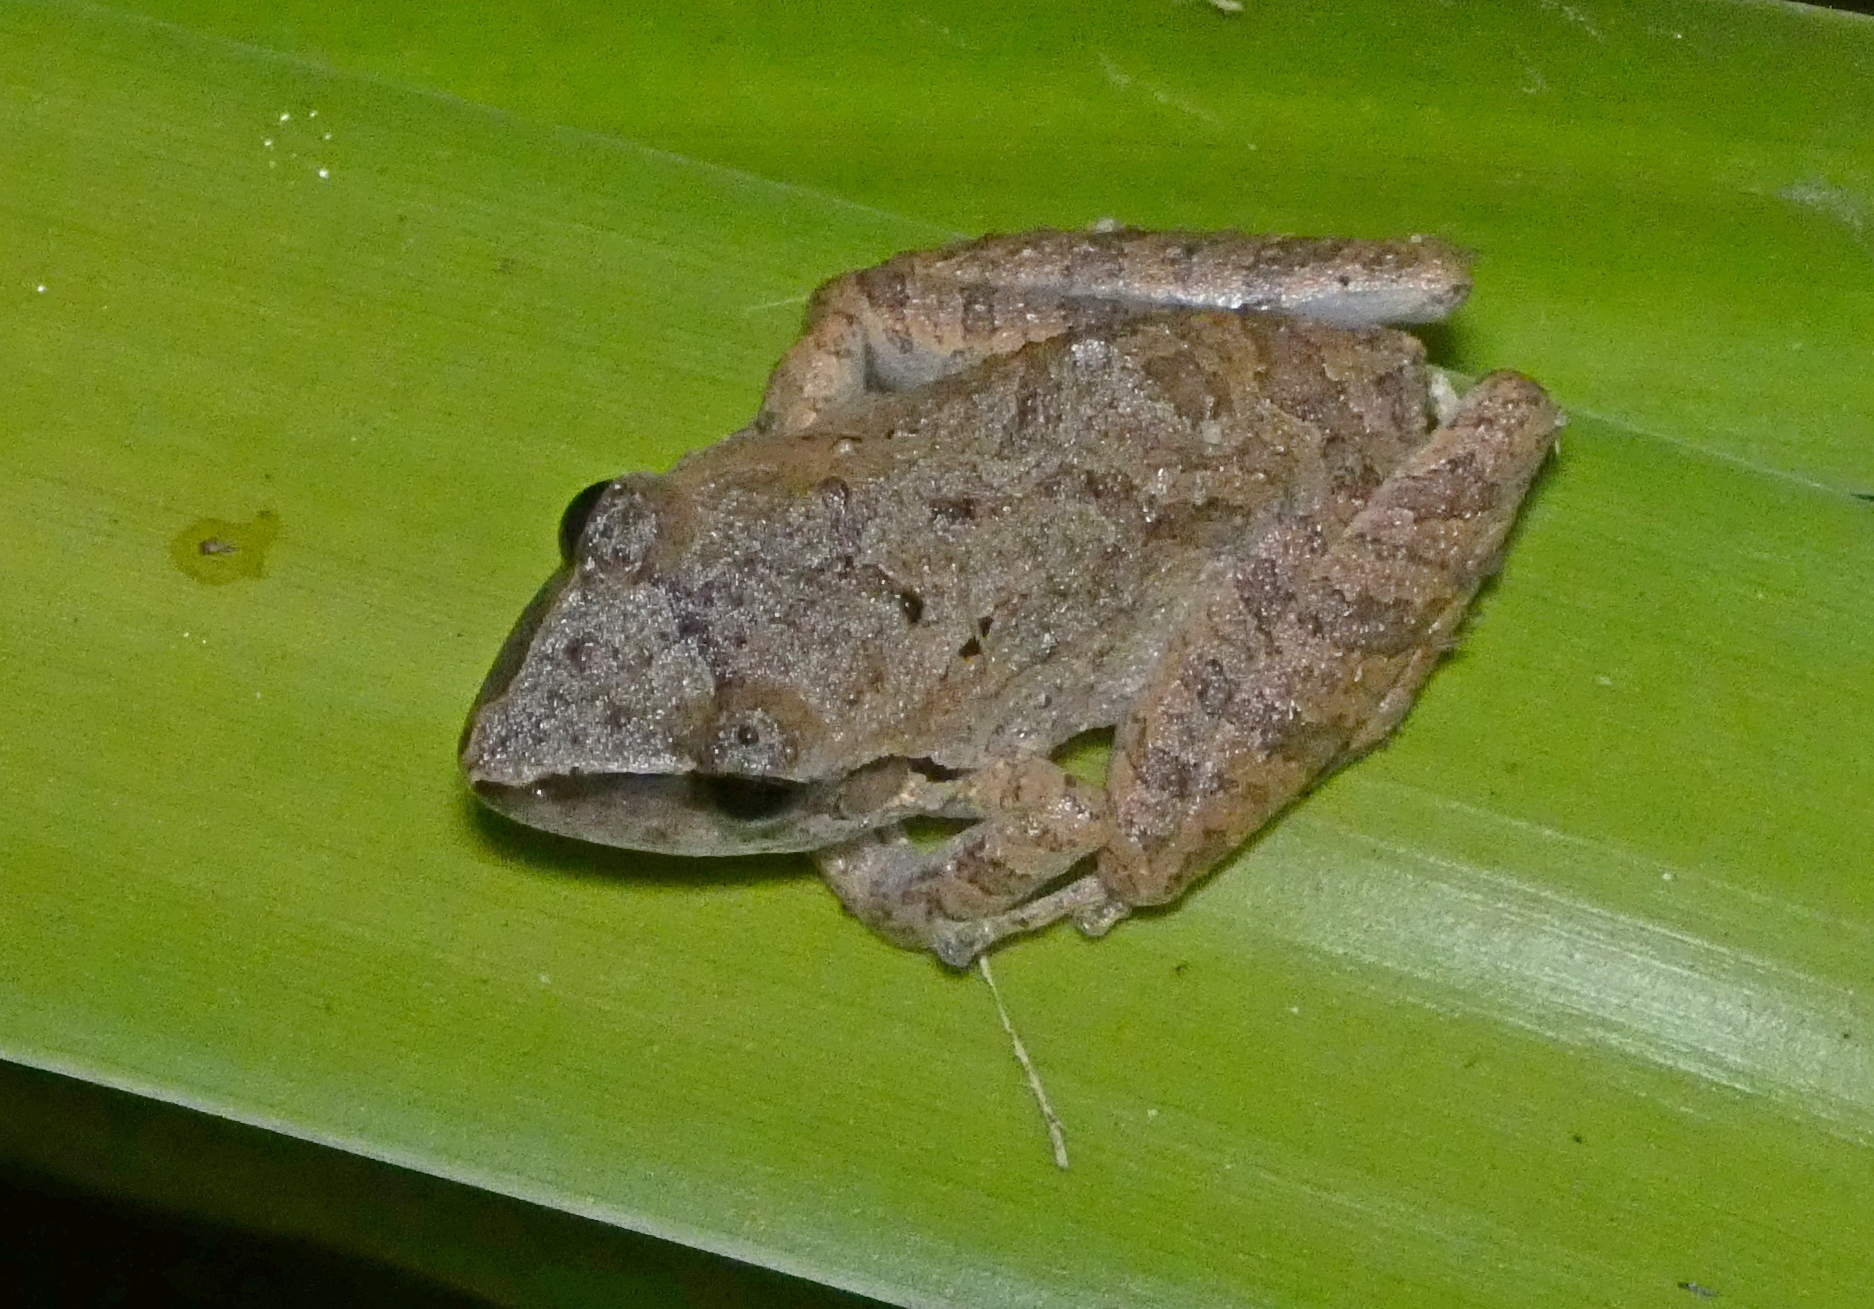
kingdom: Animalia
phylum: Chordata
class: Amphibia
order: Anura
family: Craugastoridae
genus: Pristimantis
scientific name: Pristimantis ramagii
